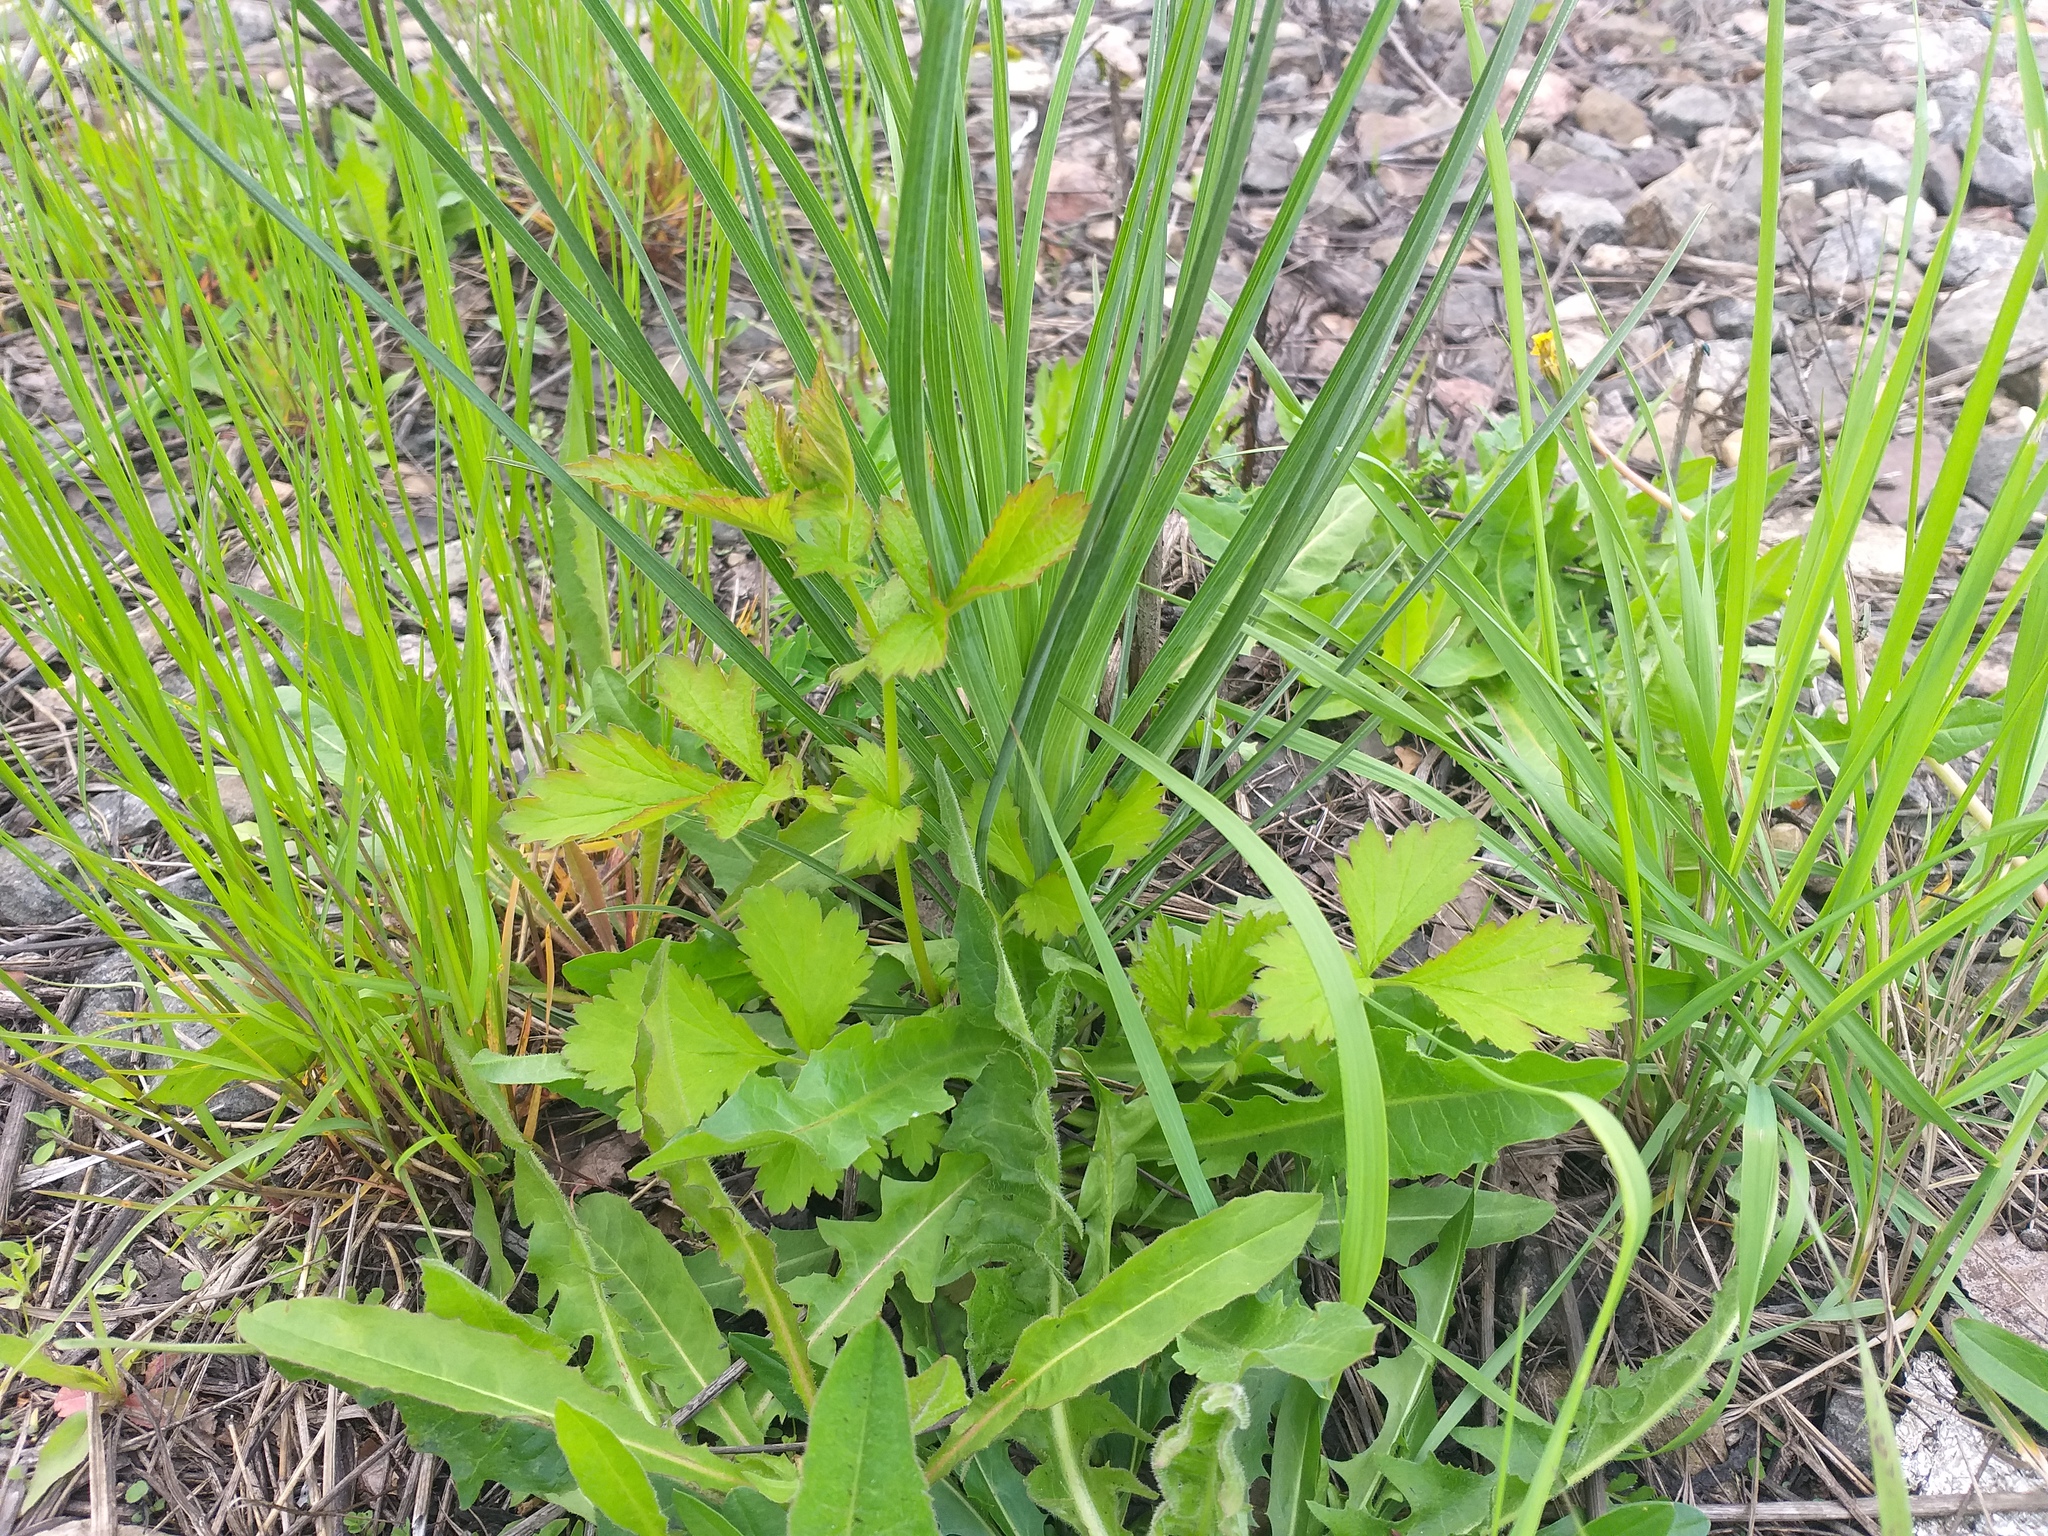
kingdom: Plantae
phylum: Tracheophyta
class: Magnoliopsida
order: Rosales
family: Rosaceae
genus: Geum
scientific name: Geum urbanum
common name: Wood avens
